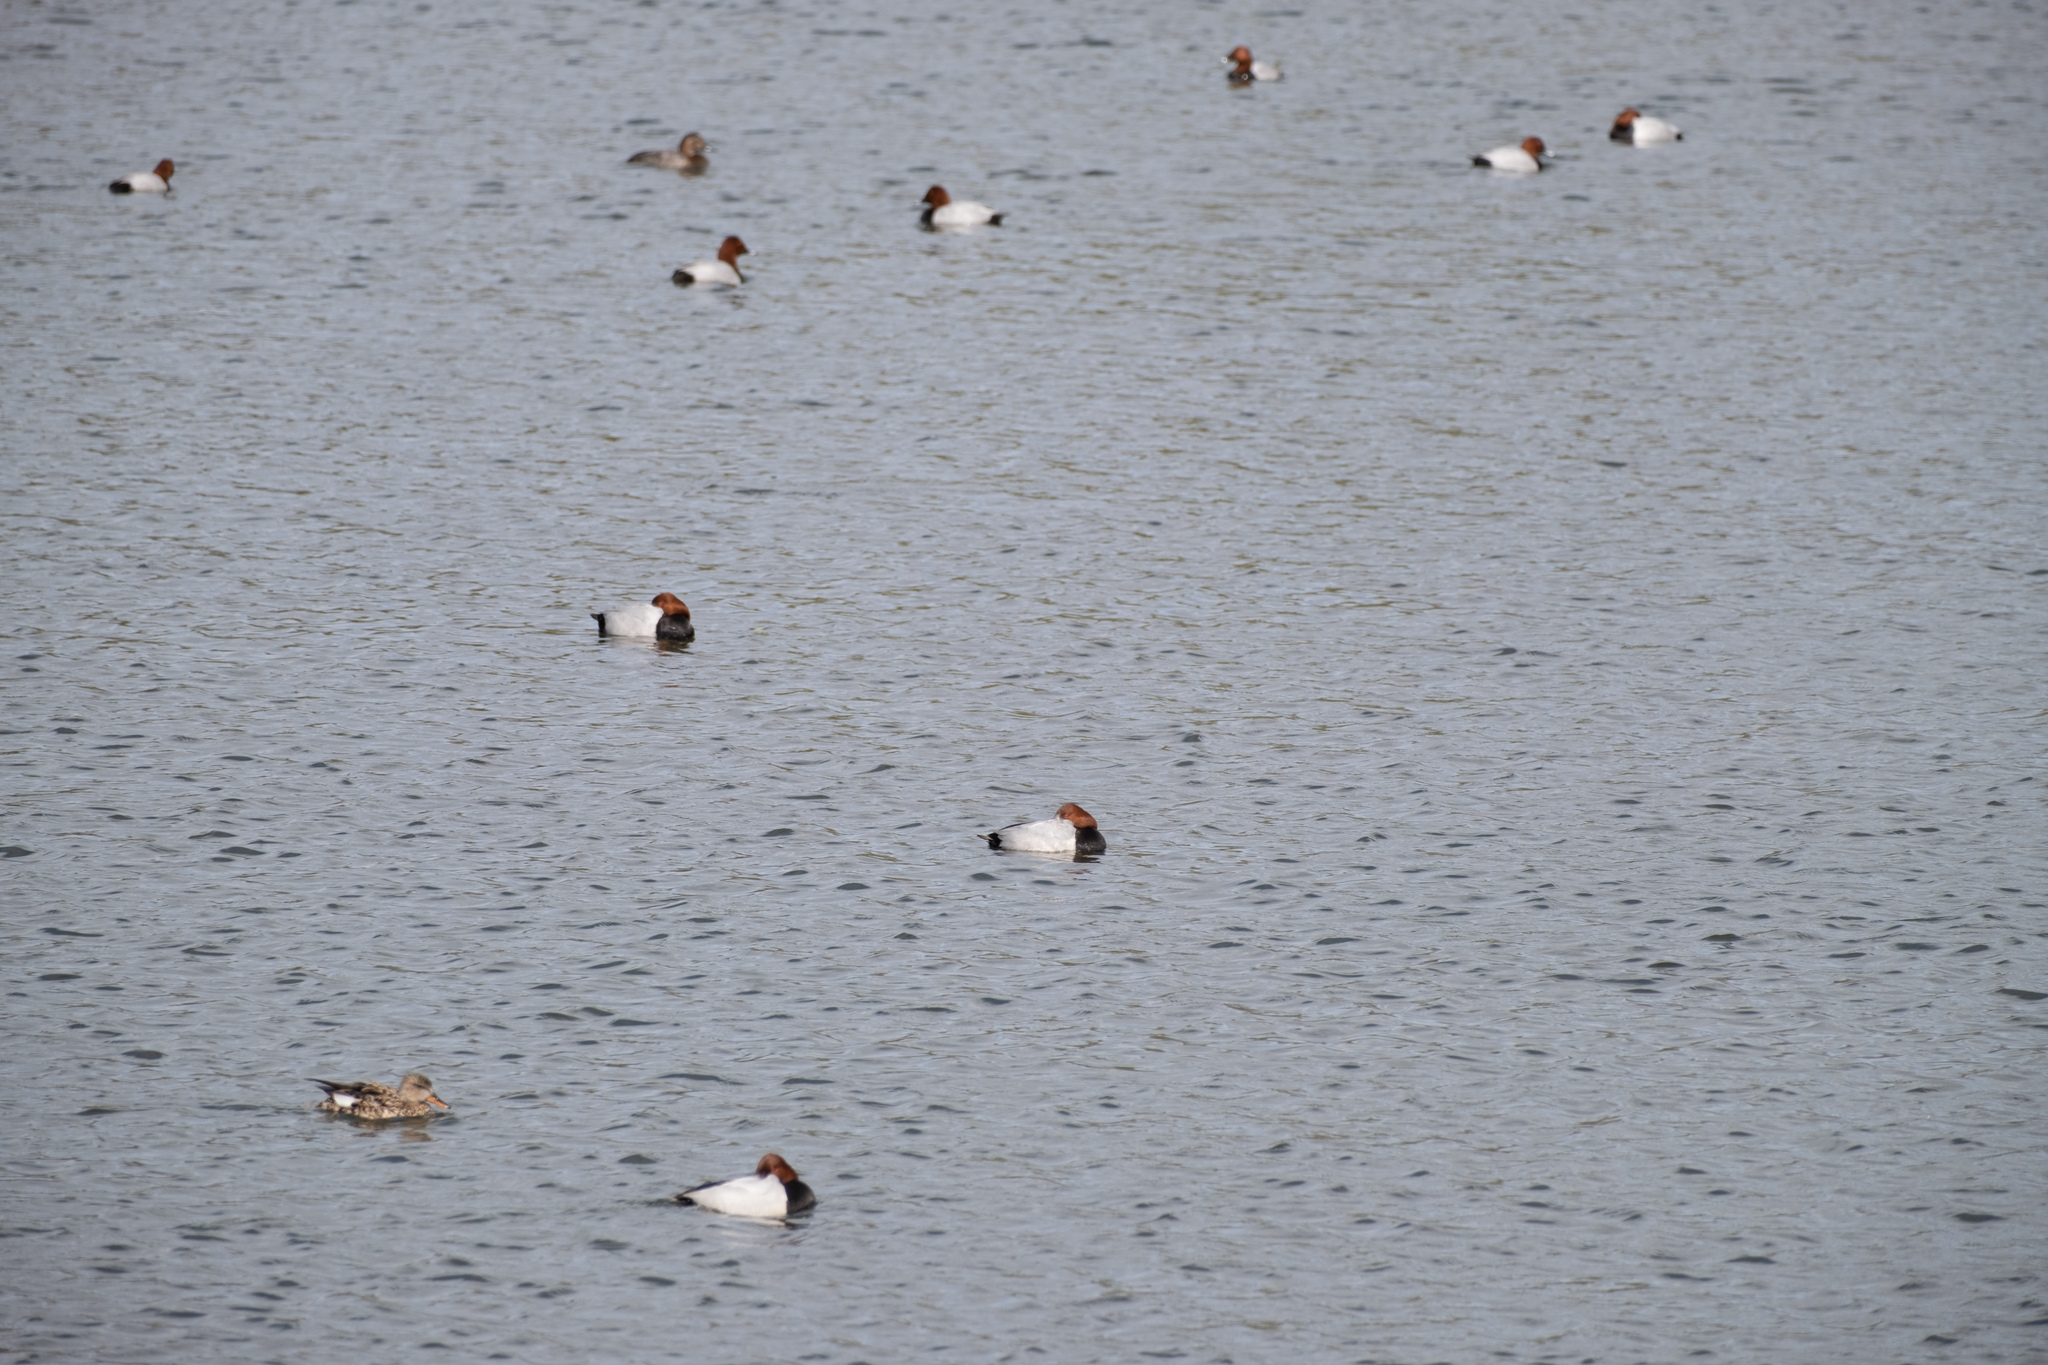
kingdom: Animalia
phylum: Chordata
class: Aves
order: Anseriformes
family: Anatidae
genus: Aythya
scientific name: Aythya ferina
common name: Common pochard
